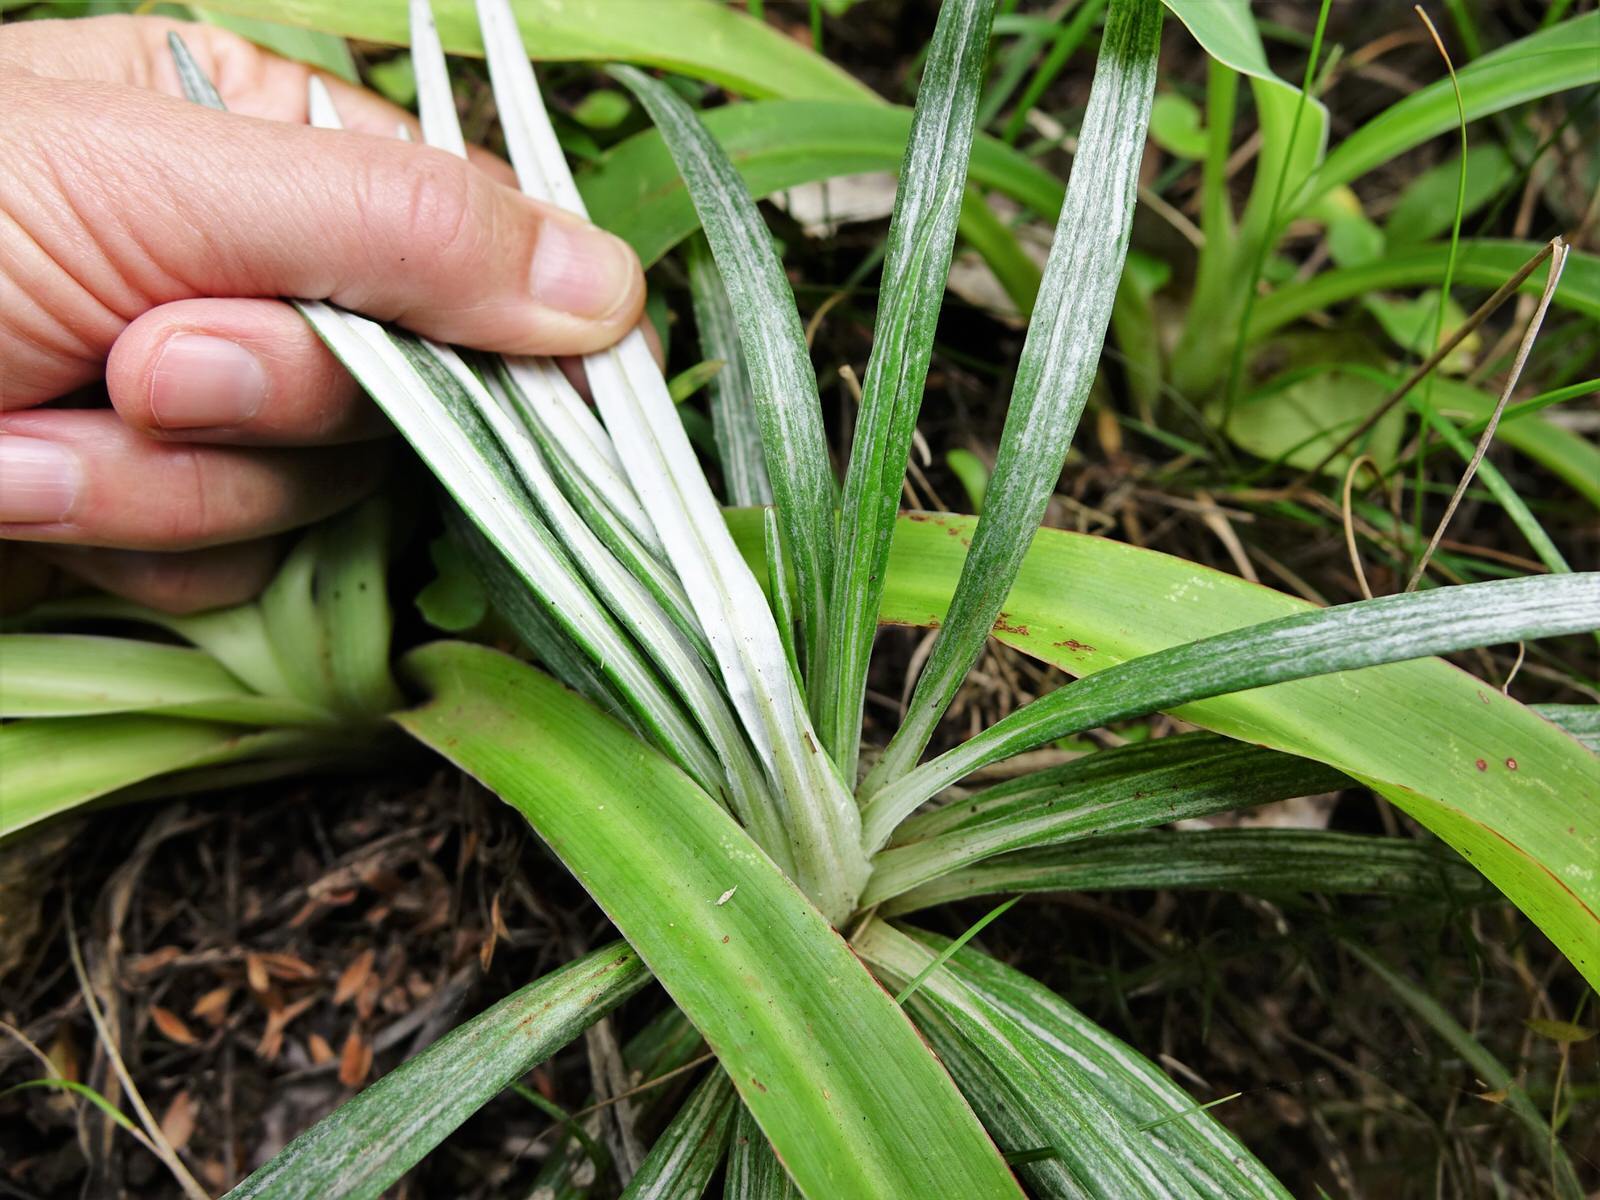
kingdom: Plantae
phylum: Tracheophyta
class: Magnoliopsida
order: Asterales
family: Asteraceae
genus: Celmisia
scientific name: Celmisia major
